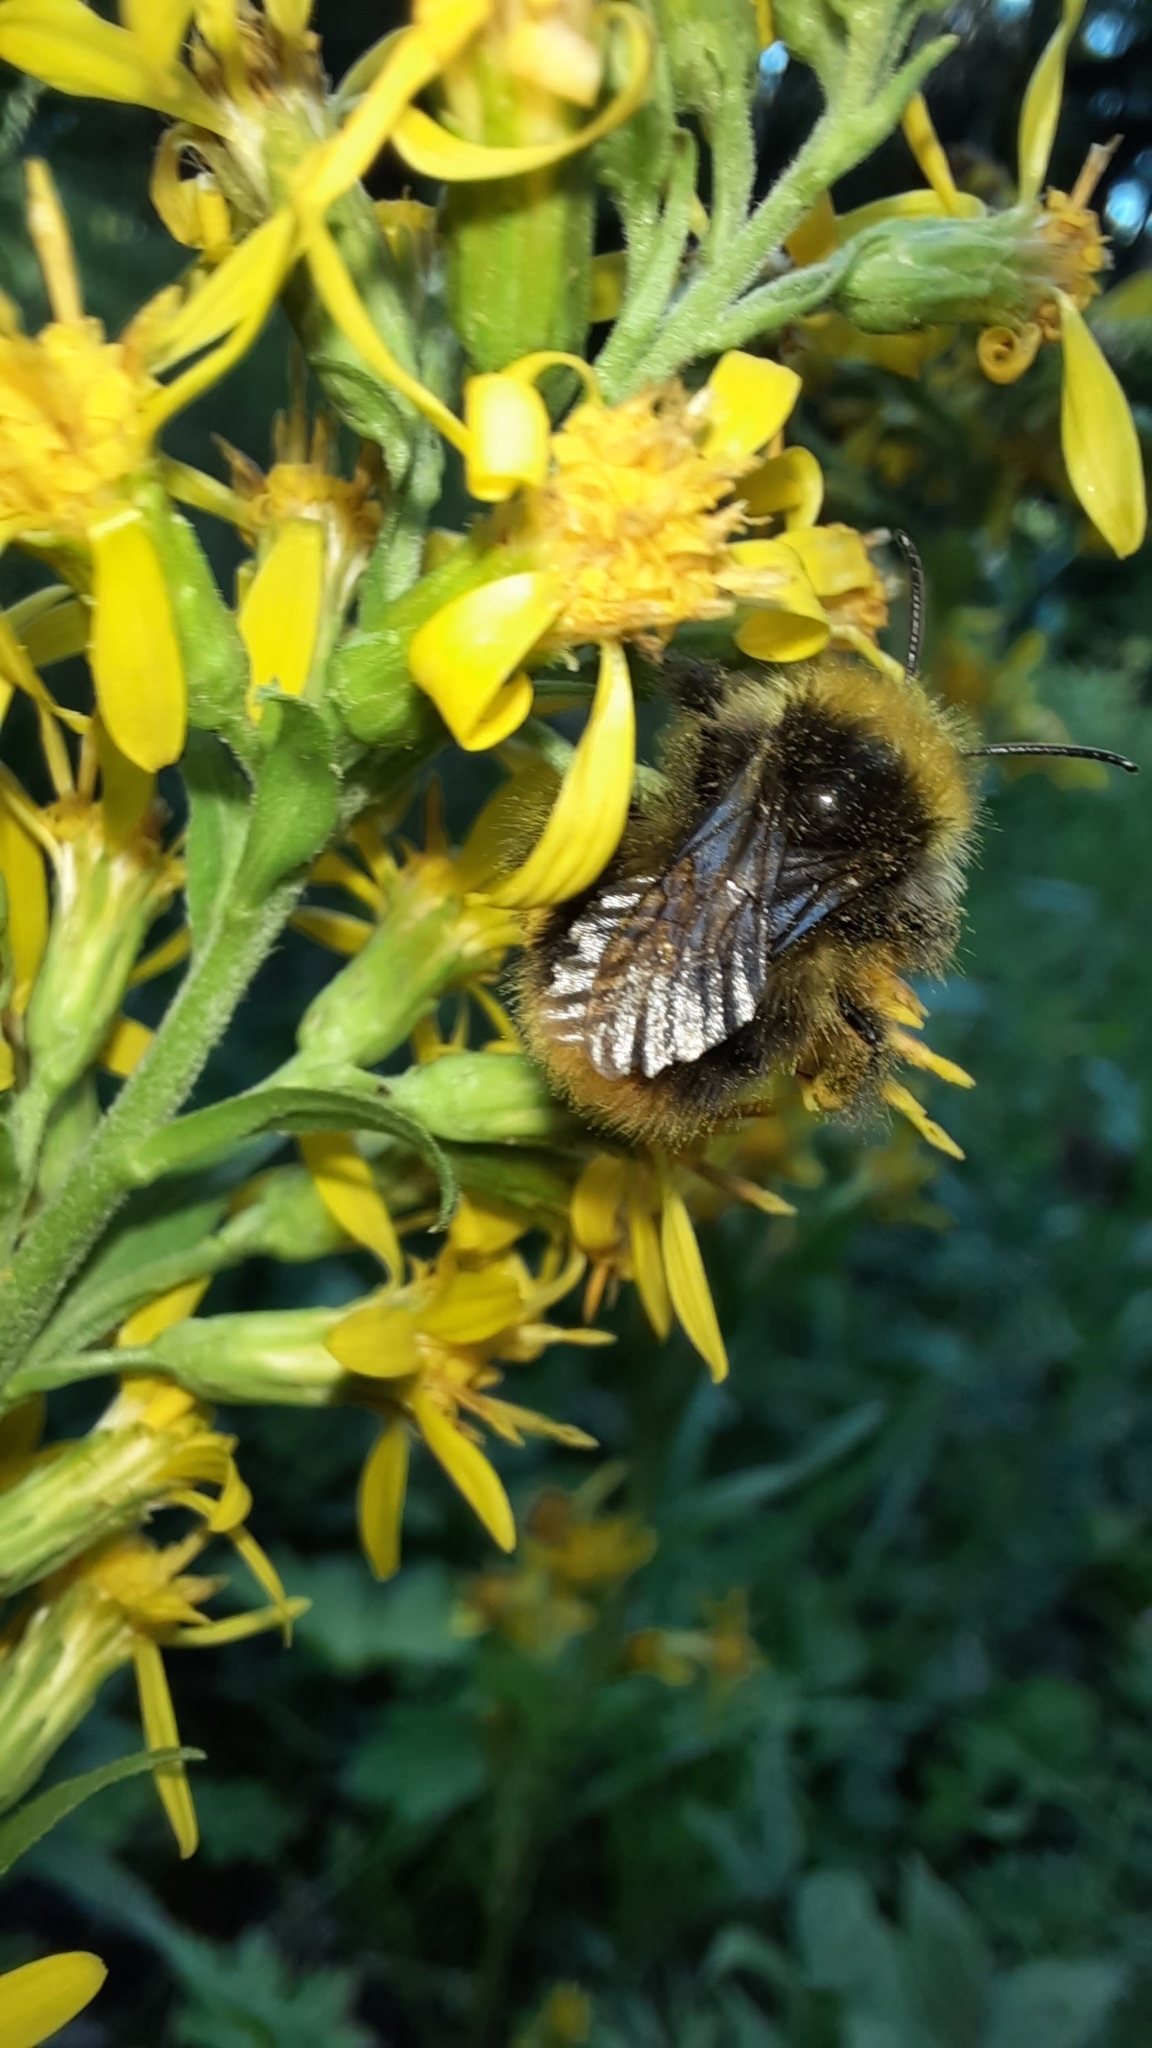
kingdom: Animalia
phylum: Arthropoda
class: Insecta
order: Hymenoptera
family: Apidae
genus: Bombus
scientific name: Bombus pratorum
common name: Early humble-bee
